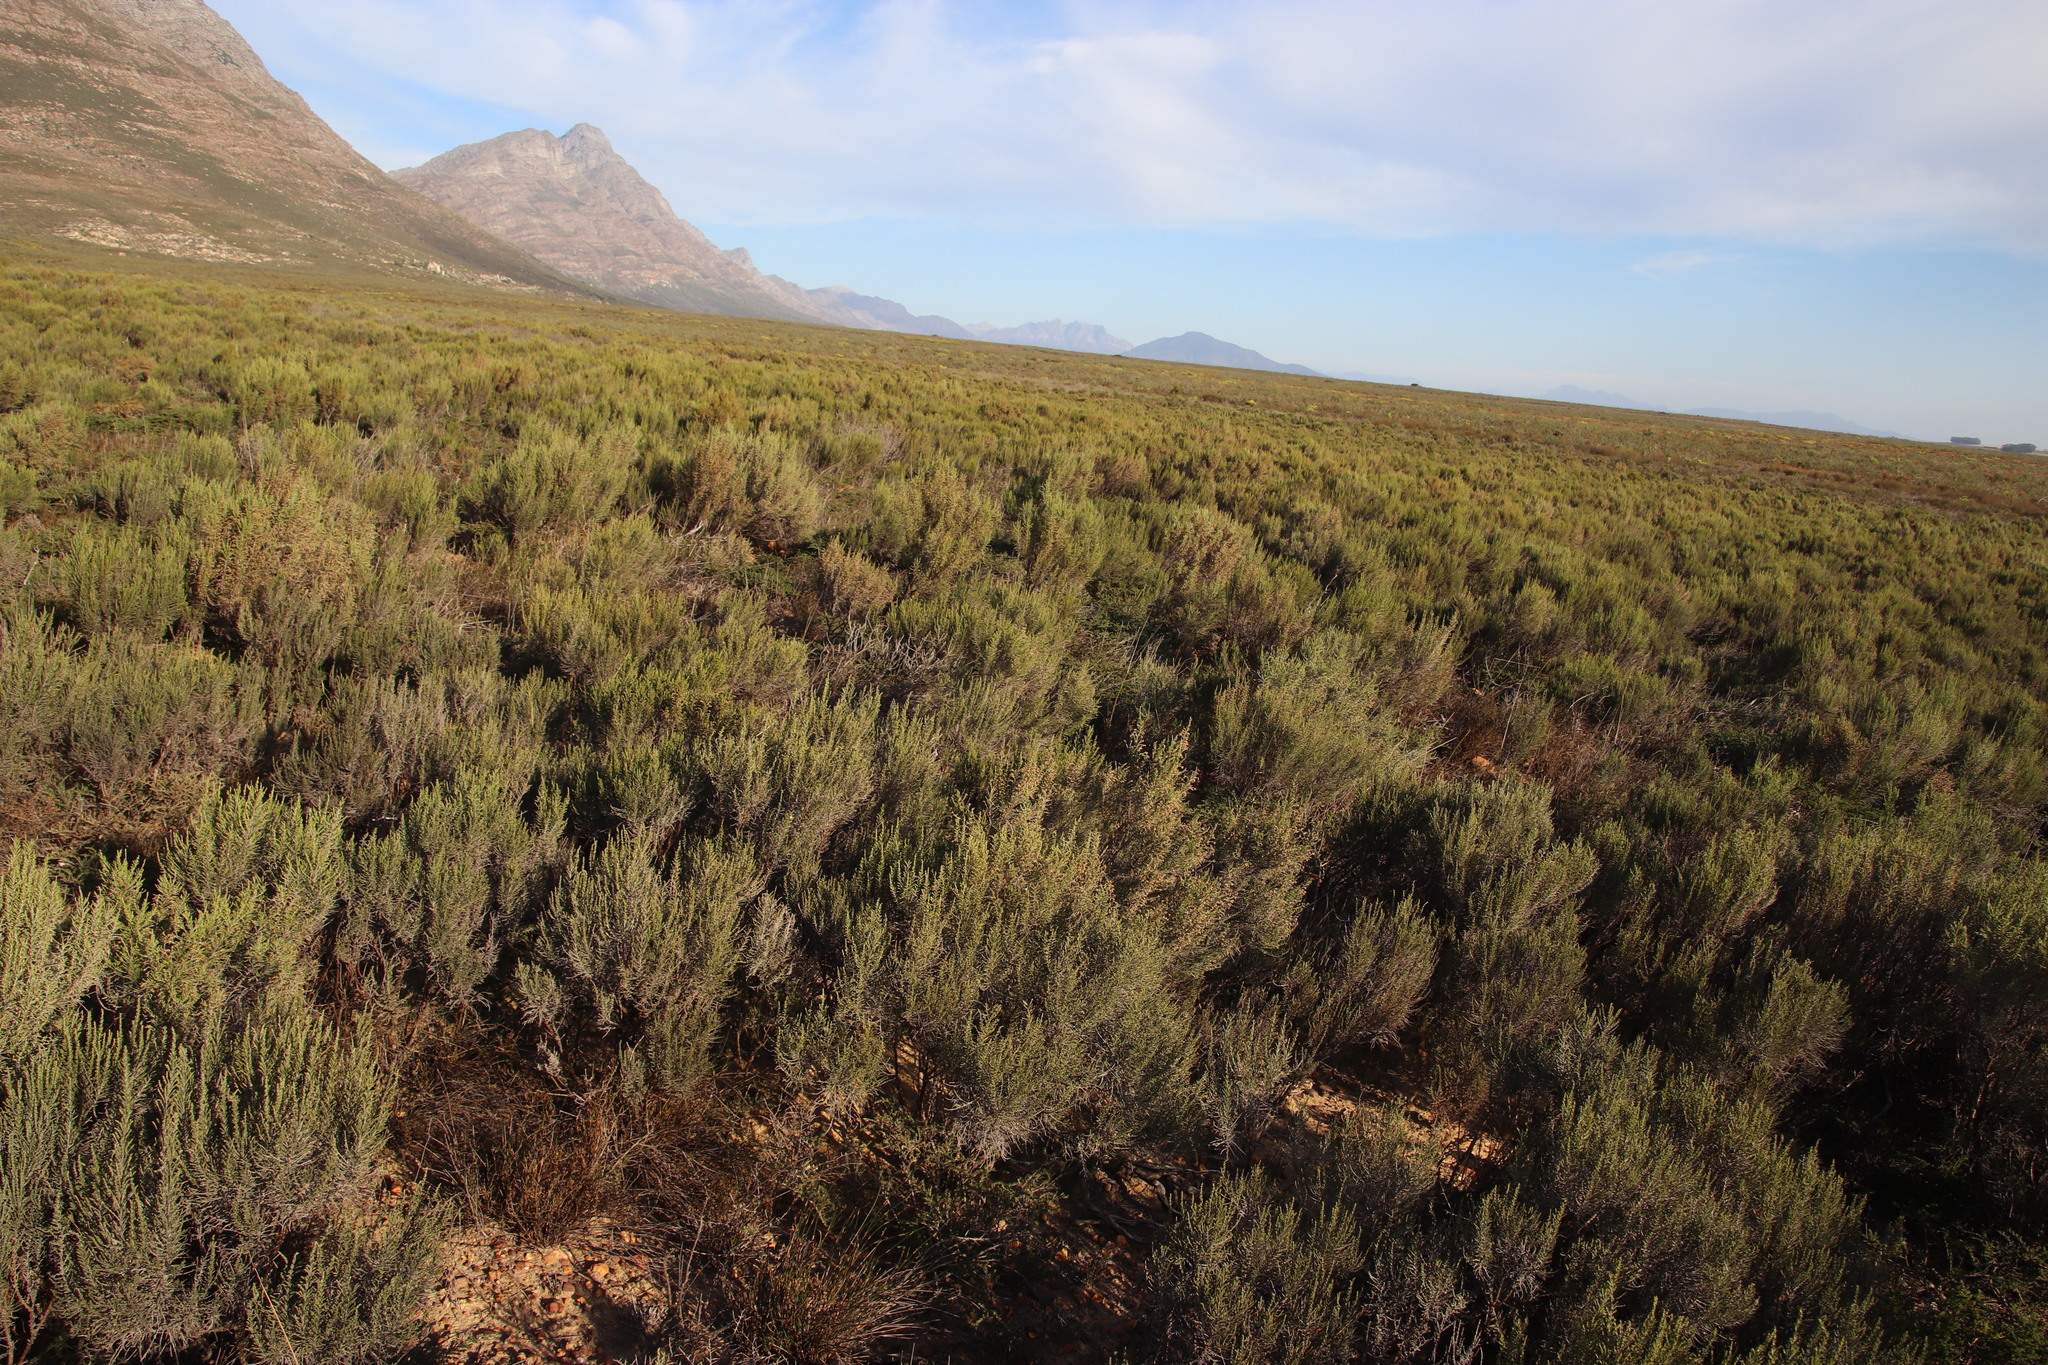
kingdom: Plantae
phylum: Tracheophyta
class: Magnoliopsida
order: Asterales
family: Asteraceae
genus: Dicerothamnus
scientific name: Dicerothamnus rhinocerotis
